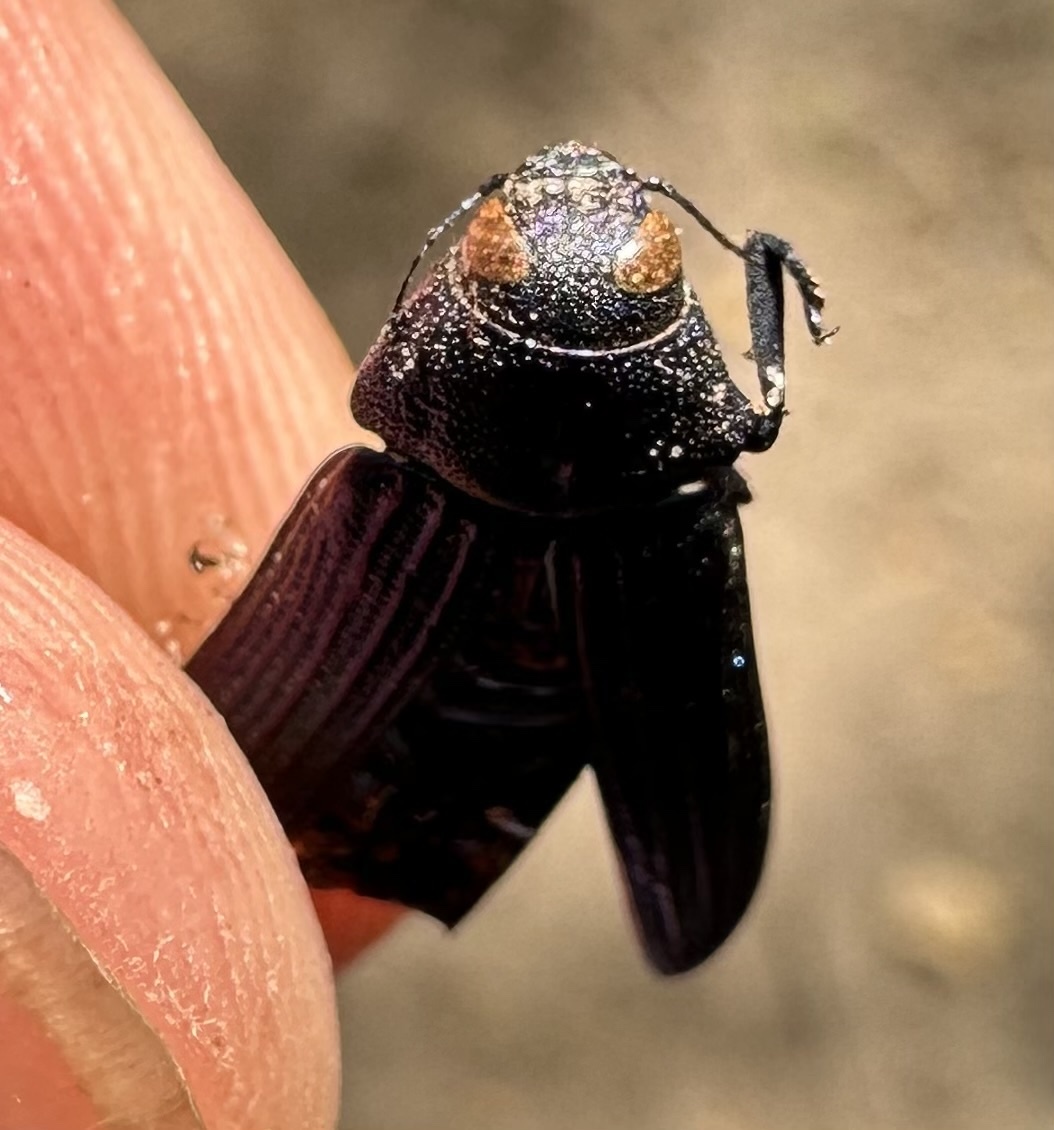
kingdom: Animalia
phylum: Arthropoda
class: Insecta
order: Coleoptera
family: Buprestidae
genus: Cobosella
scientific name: Cobosella laesicollis
